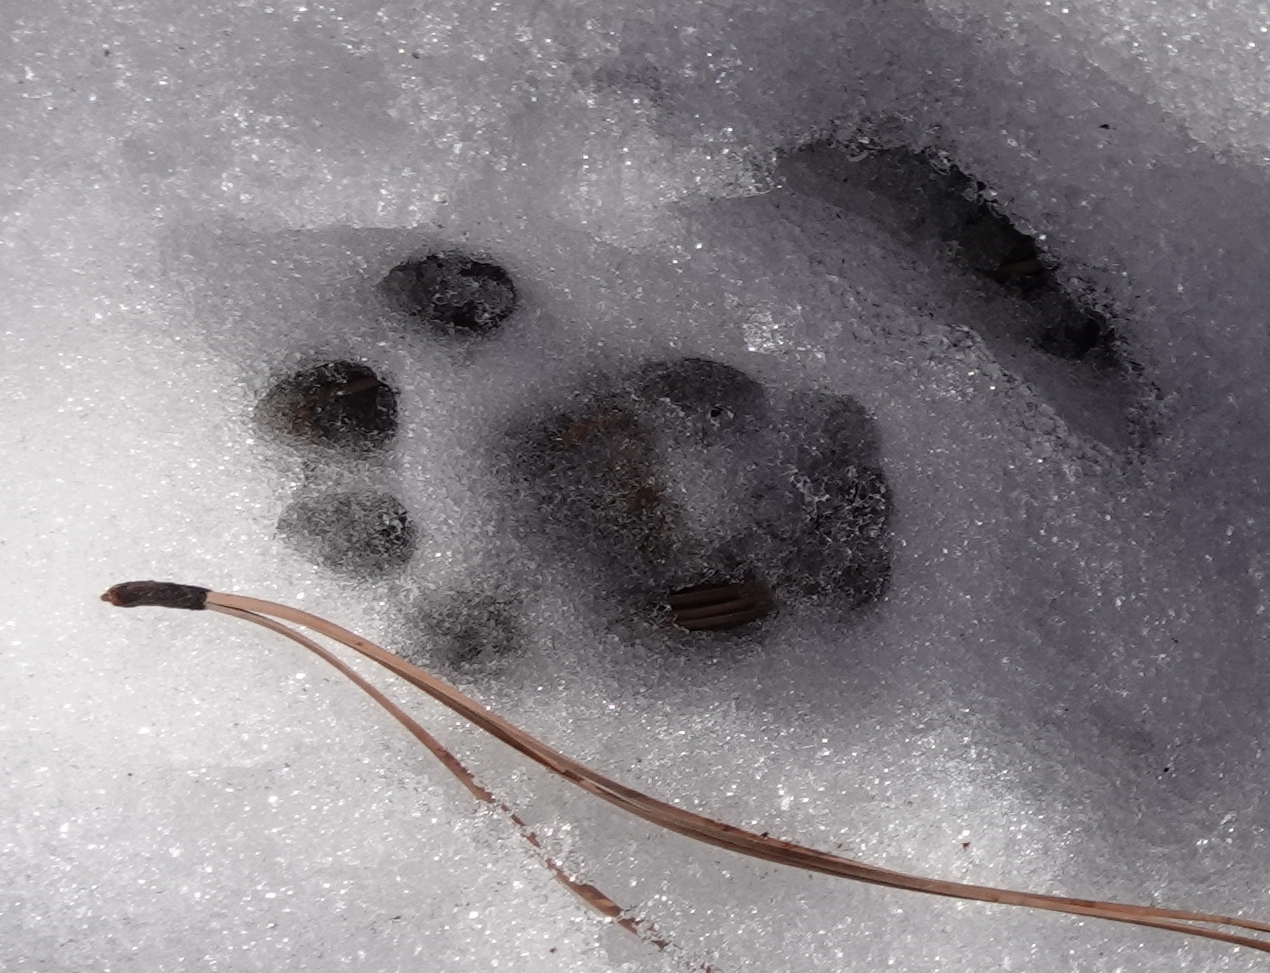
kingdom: Animalia
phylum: Chordata
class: Mammalia
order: Carnivora
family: Felidae
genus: Lynx
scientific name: Lynx rufus
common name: Bobcat
